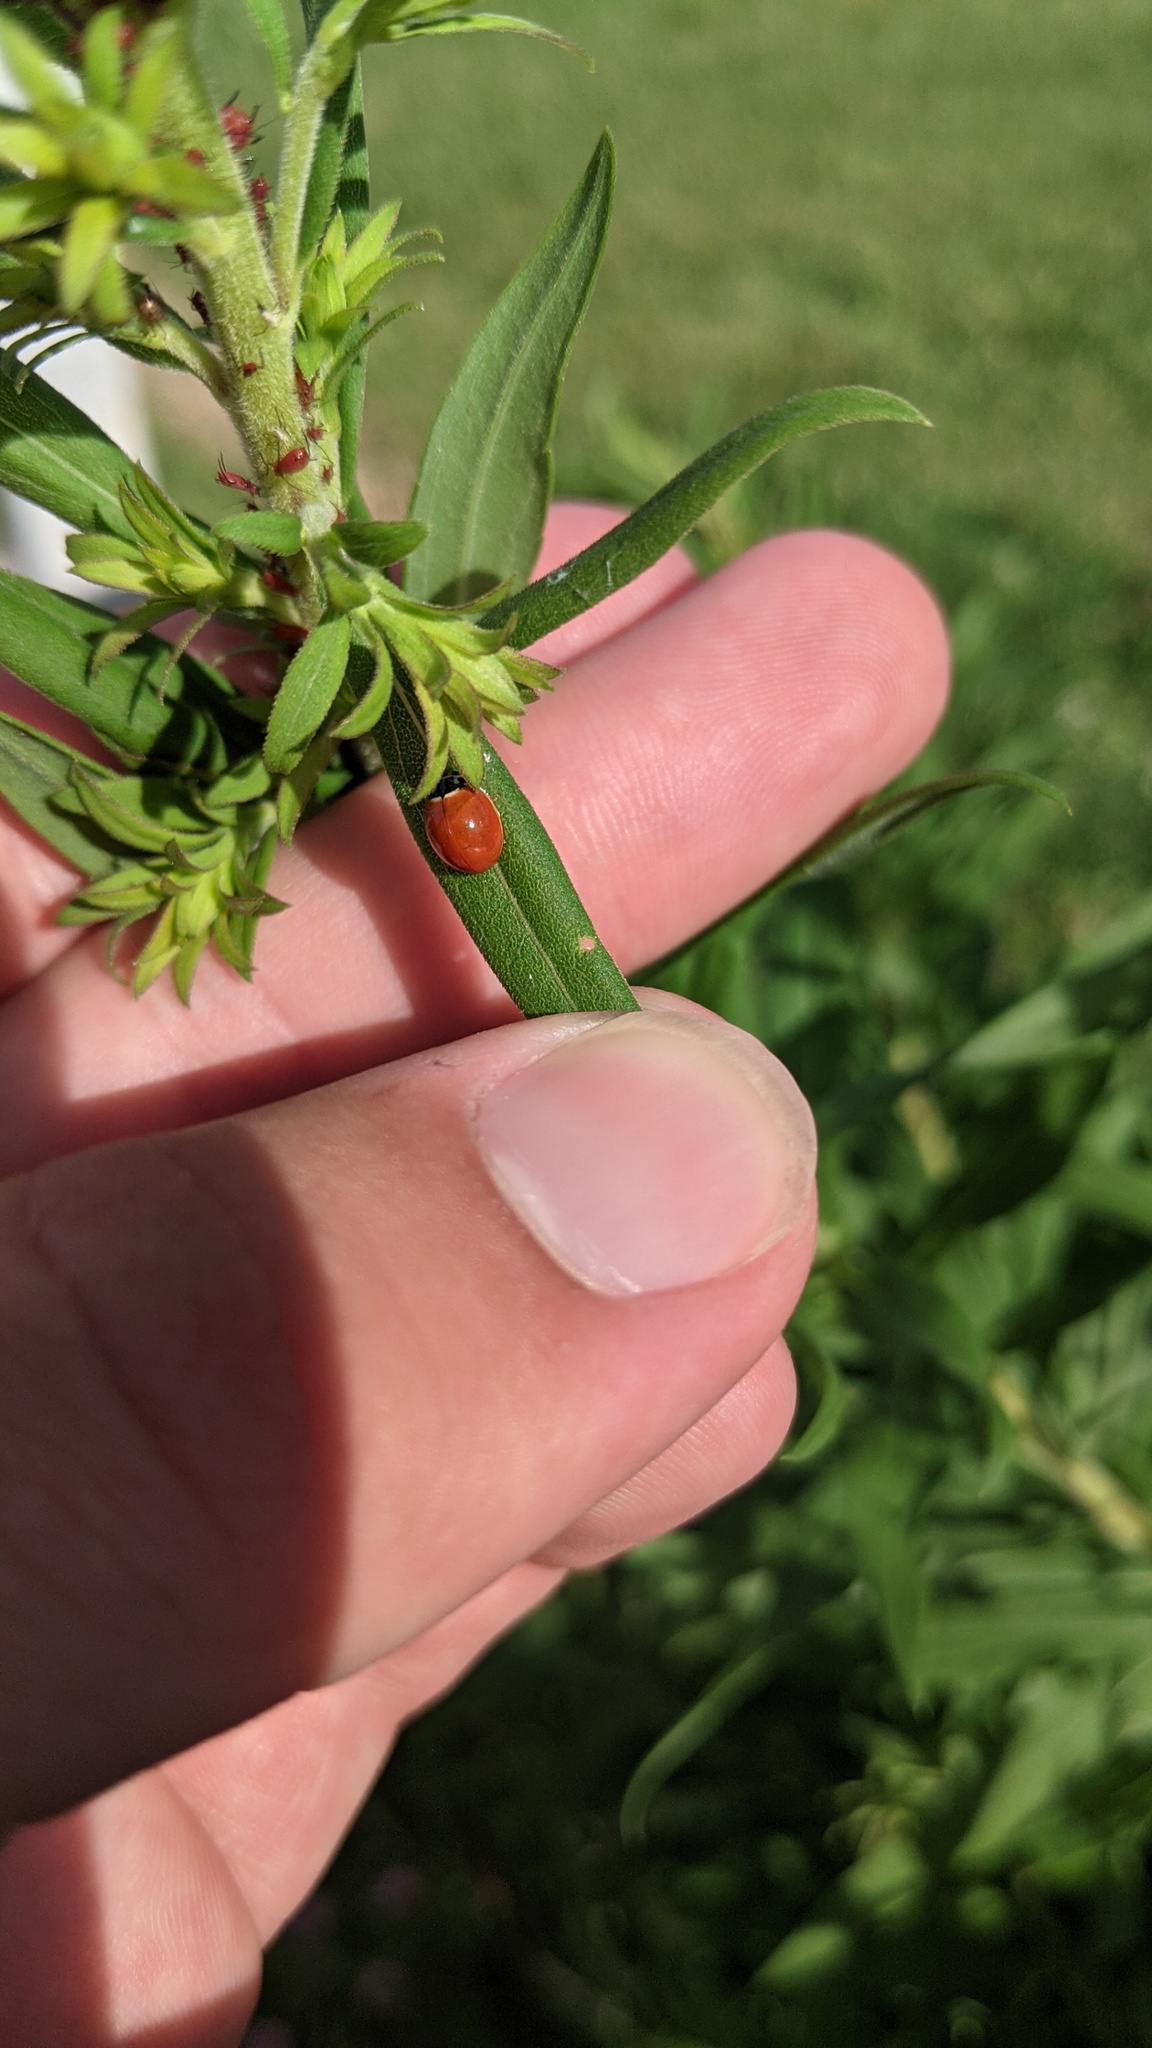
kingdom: Animalia
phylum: Arthropoda
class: Insecta
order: Coleoptera
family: Coccinellidae
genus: Cycloneda
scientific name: Cycloneda munda
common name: Polished lady beetle
